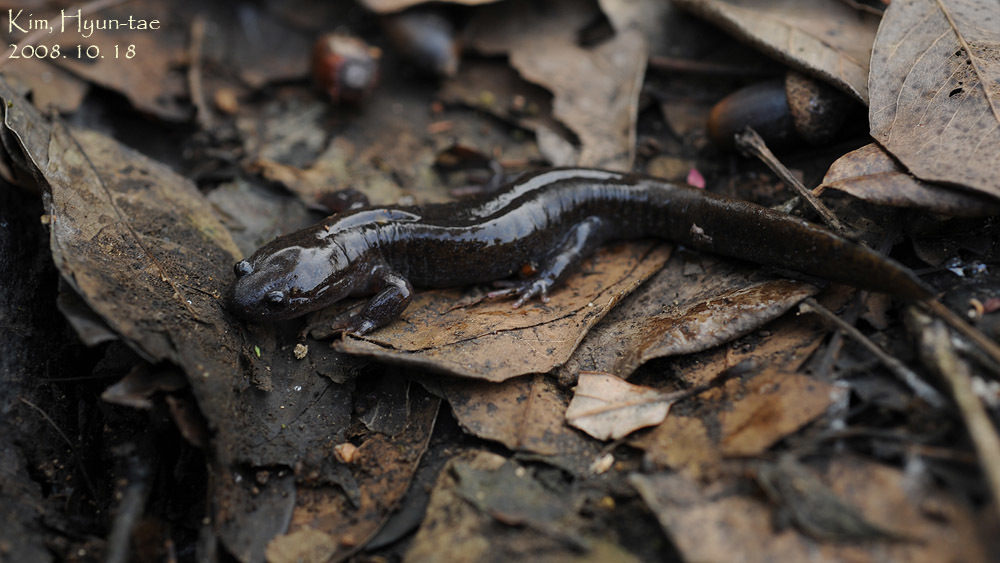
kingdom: Animalia
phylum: Chordata
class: Amphibia
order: Caudata
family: Hynobiidae
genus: Hynobius
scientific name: Hynobius leechii
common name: Gensan salamander
